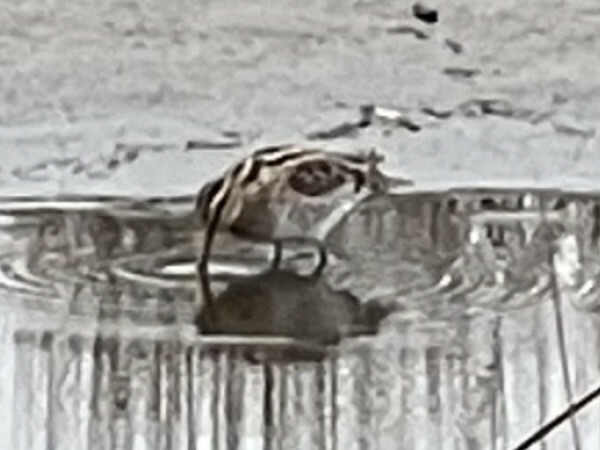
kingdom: Animalia
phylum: Chordata
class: Aves
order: Charadriiformes
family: Scolopacidae
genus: Gallinago
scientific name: Gallinago delicata
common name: Wilson's snipe
